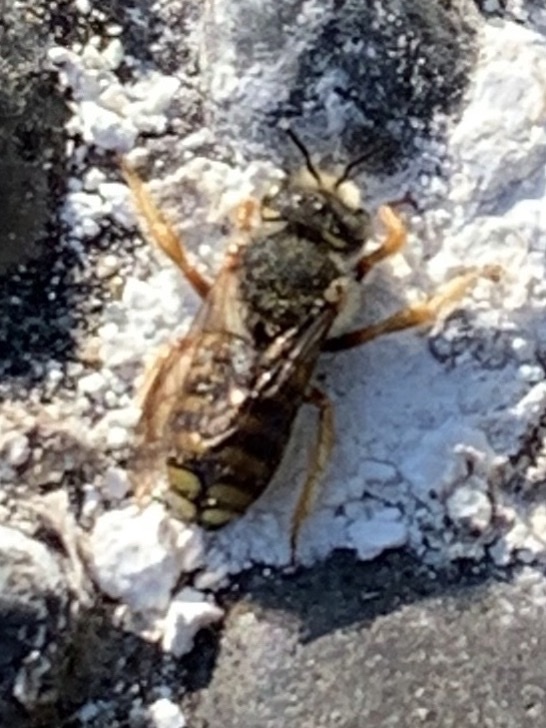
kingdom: Animalia
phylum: Arthropoda
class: Insecta
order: Hymenoptera
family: Megachilidae
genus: Anthidium
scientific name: Anthidium oblongatum
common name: Oblong wool carder bee
